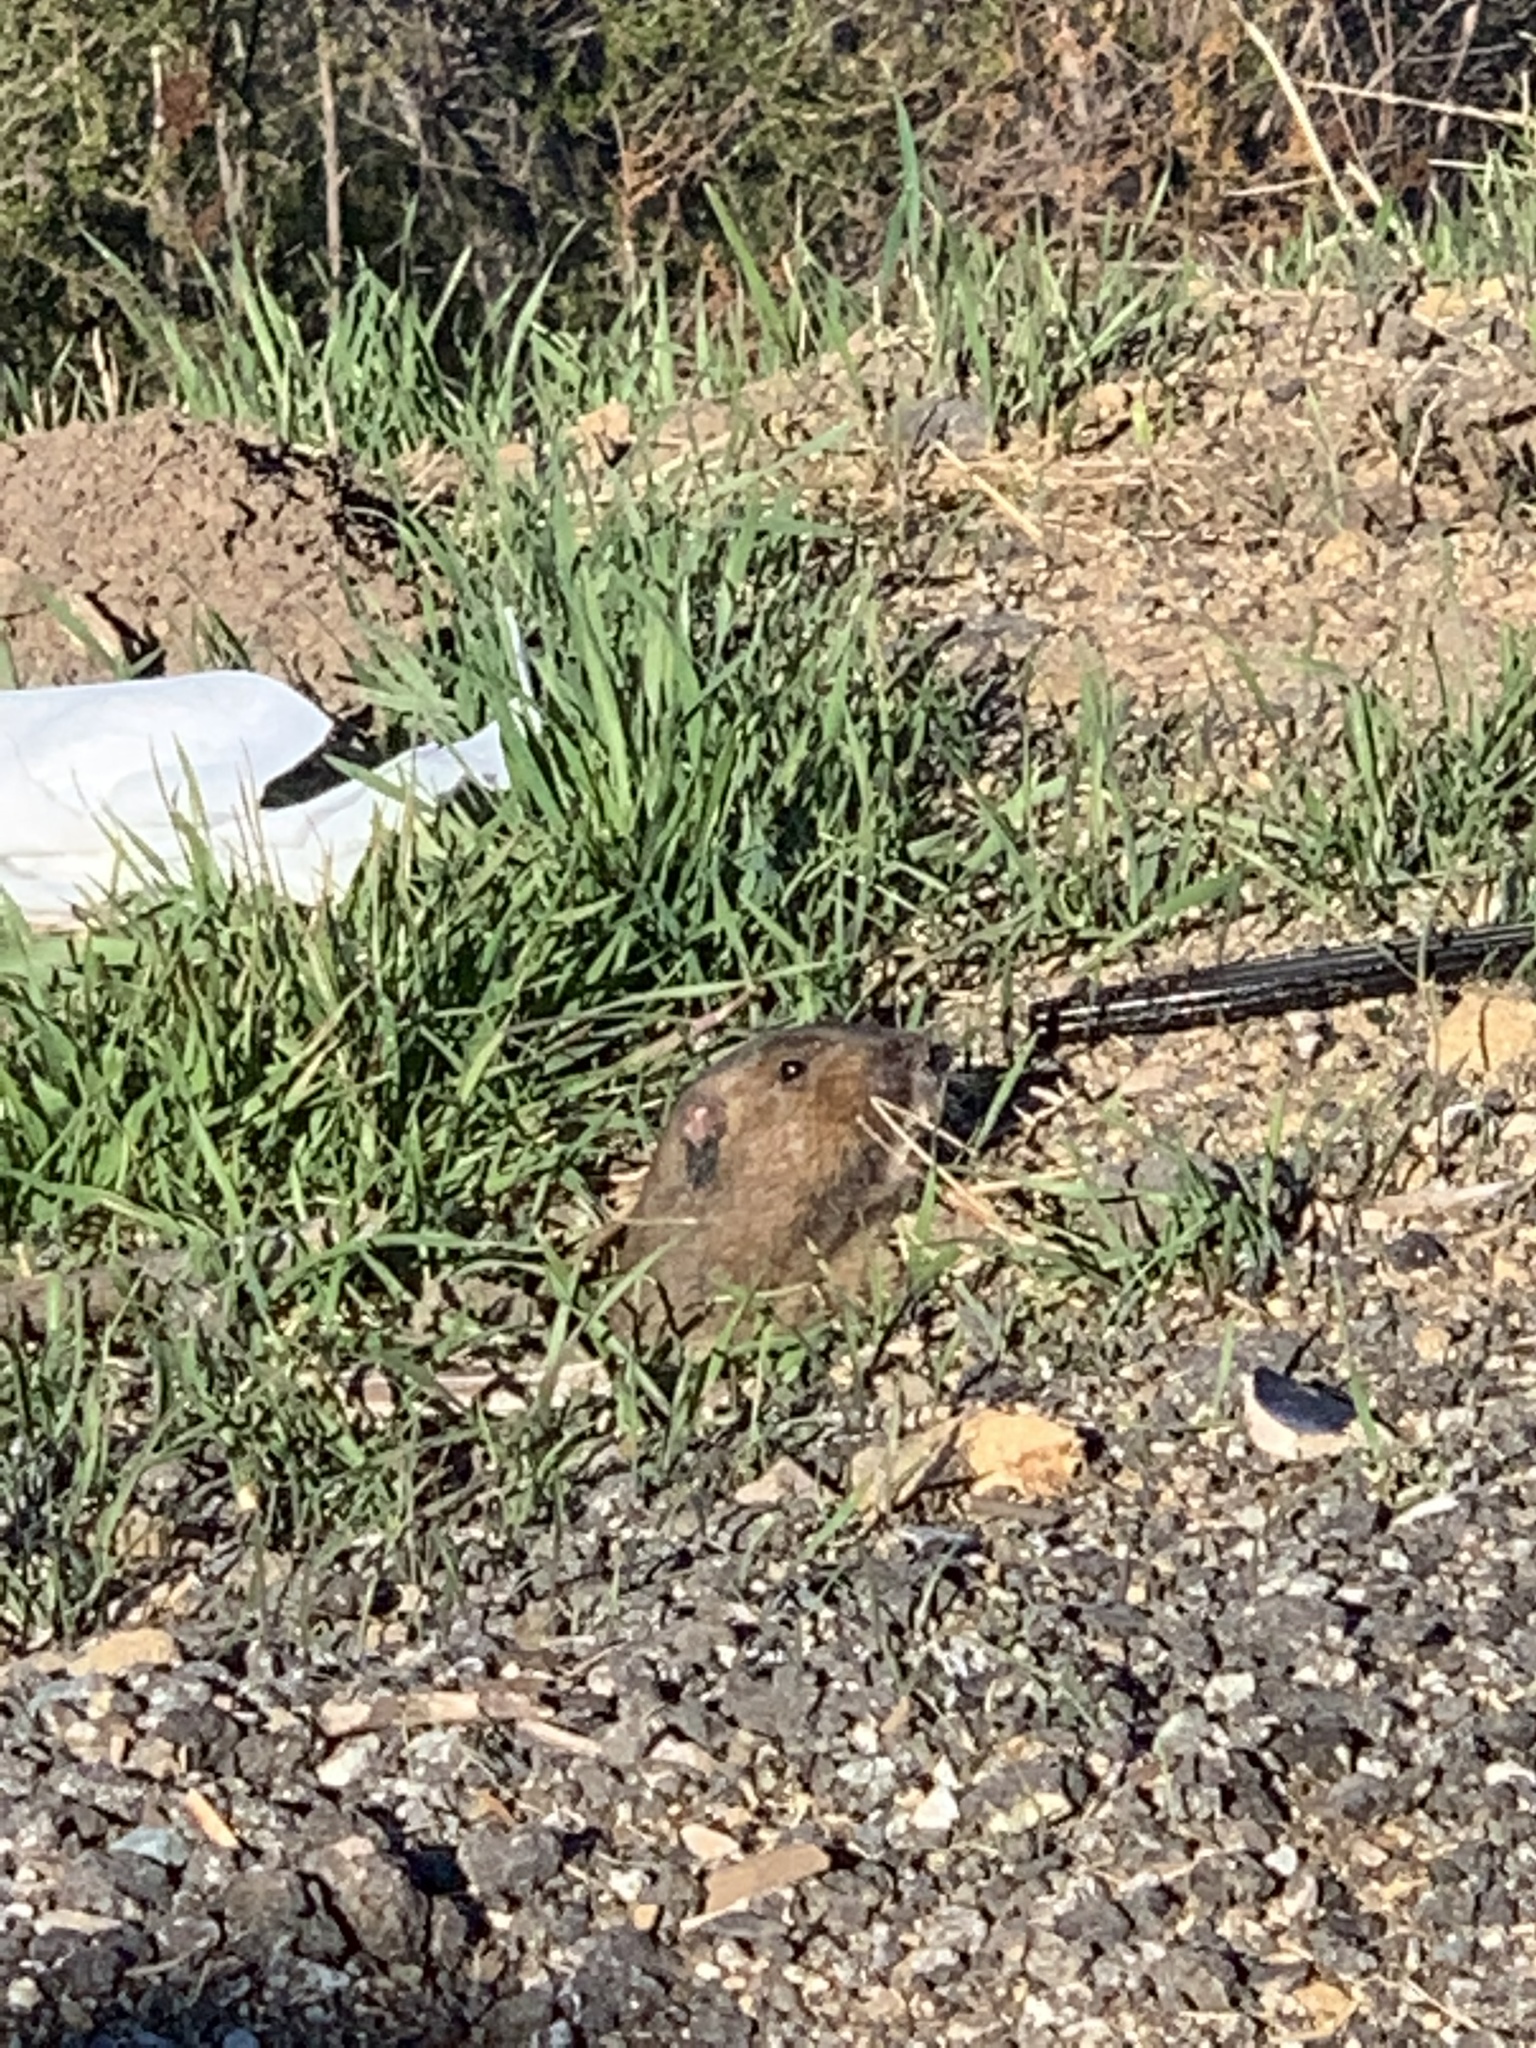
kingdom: Animalia
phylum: Chordata
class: Mammalia
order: Rodentia
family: Geomyidae
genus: Thomomys
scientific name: Thomomys bottae
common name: Botta's pocket gopher
